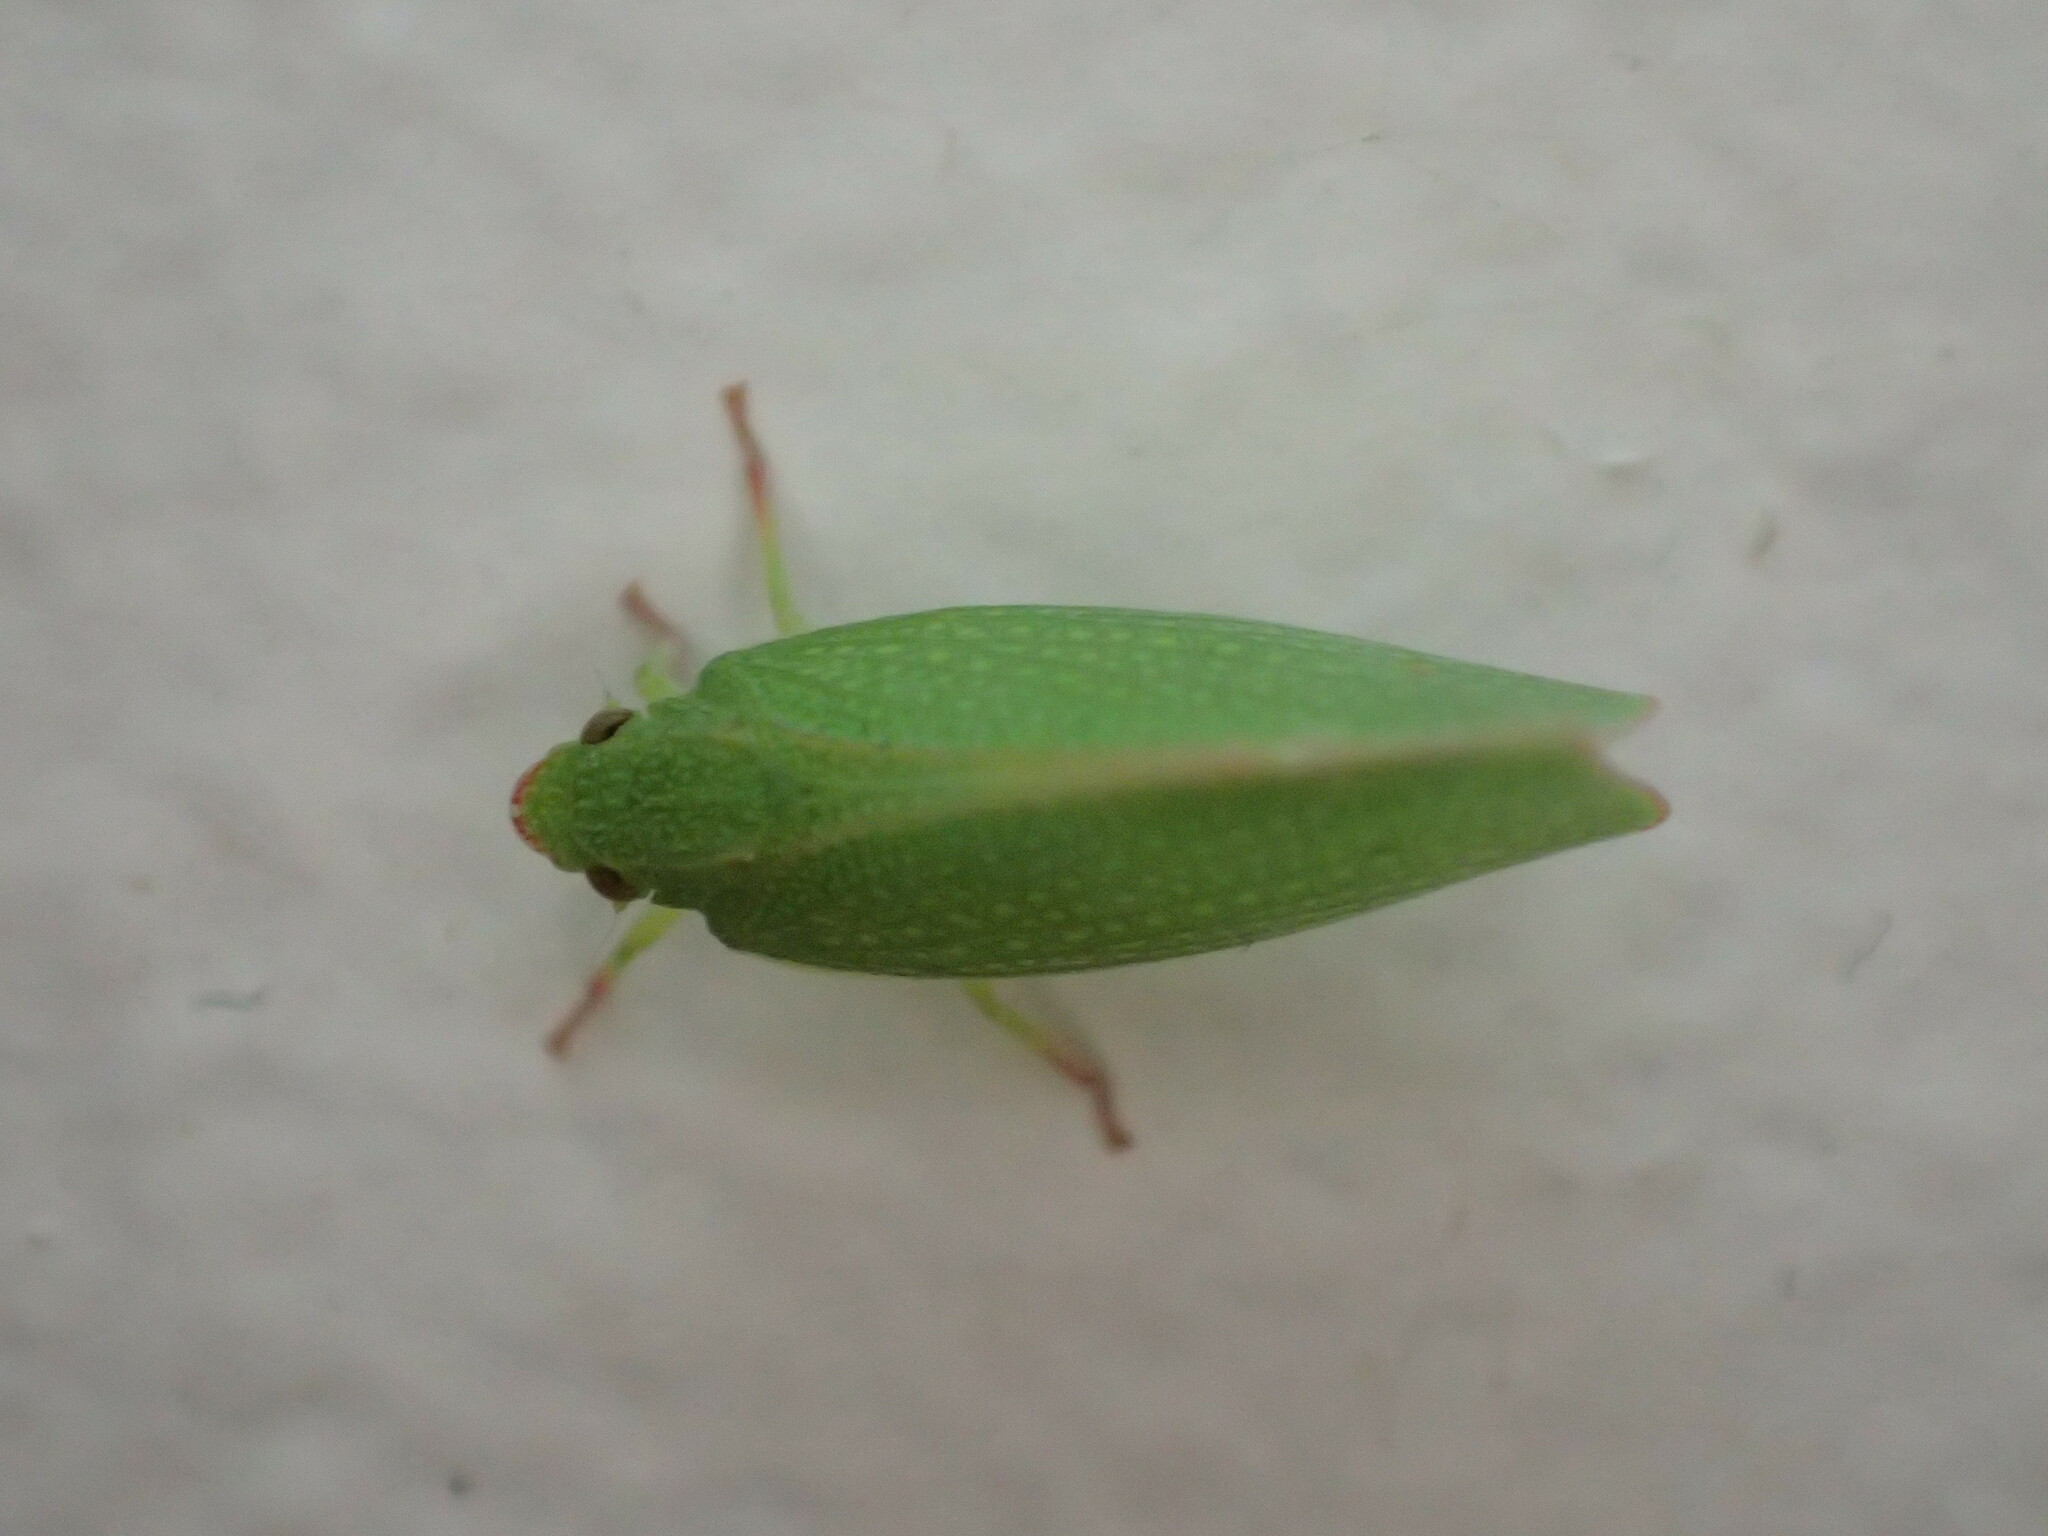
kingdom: Animalia
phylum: Arthropoda
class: Insecta
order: Hemiptera
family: Flatidae
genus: Siphanta
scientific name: Siphanta acuta
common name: Torpedo bug
